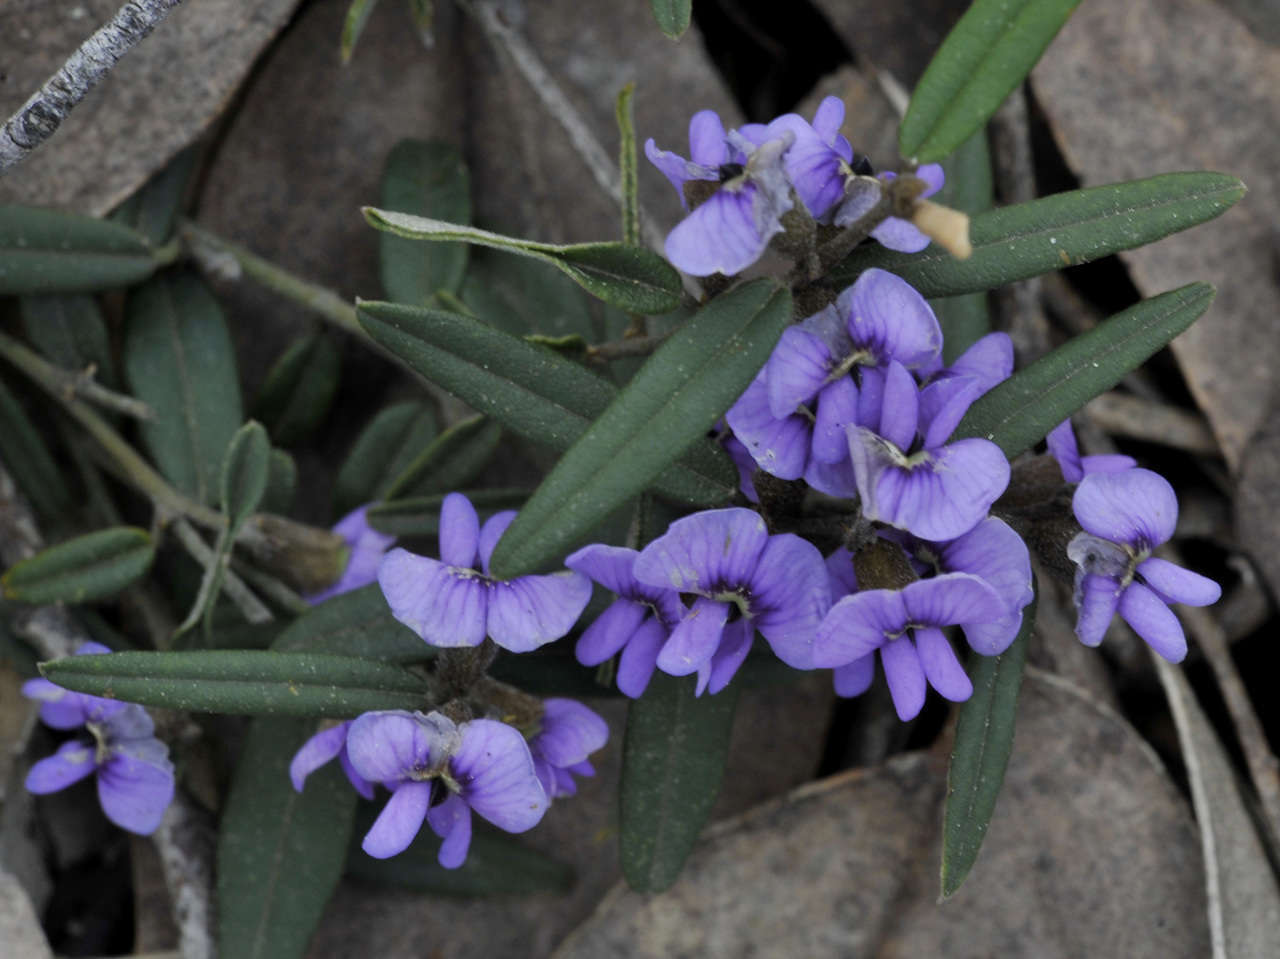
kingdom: Plantae
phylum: Tracheophyta
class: Magnoliopsida
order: Fabales
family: Fabaceae
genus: Hovea
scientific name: Hovea heterophylla
